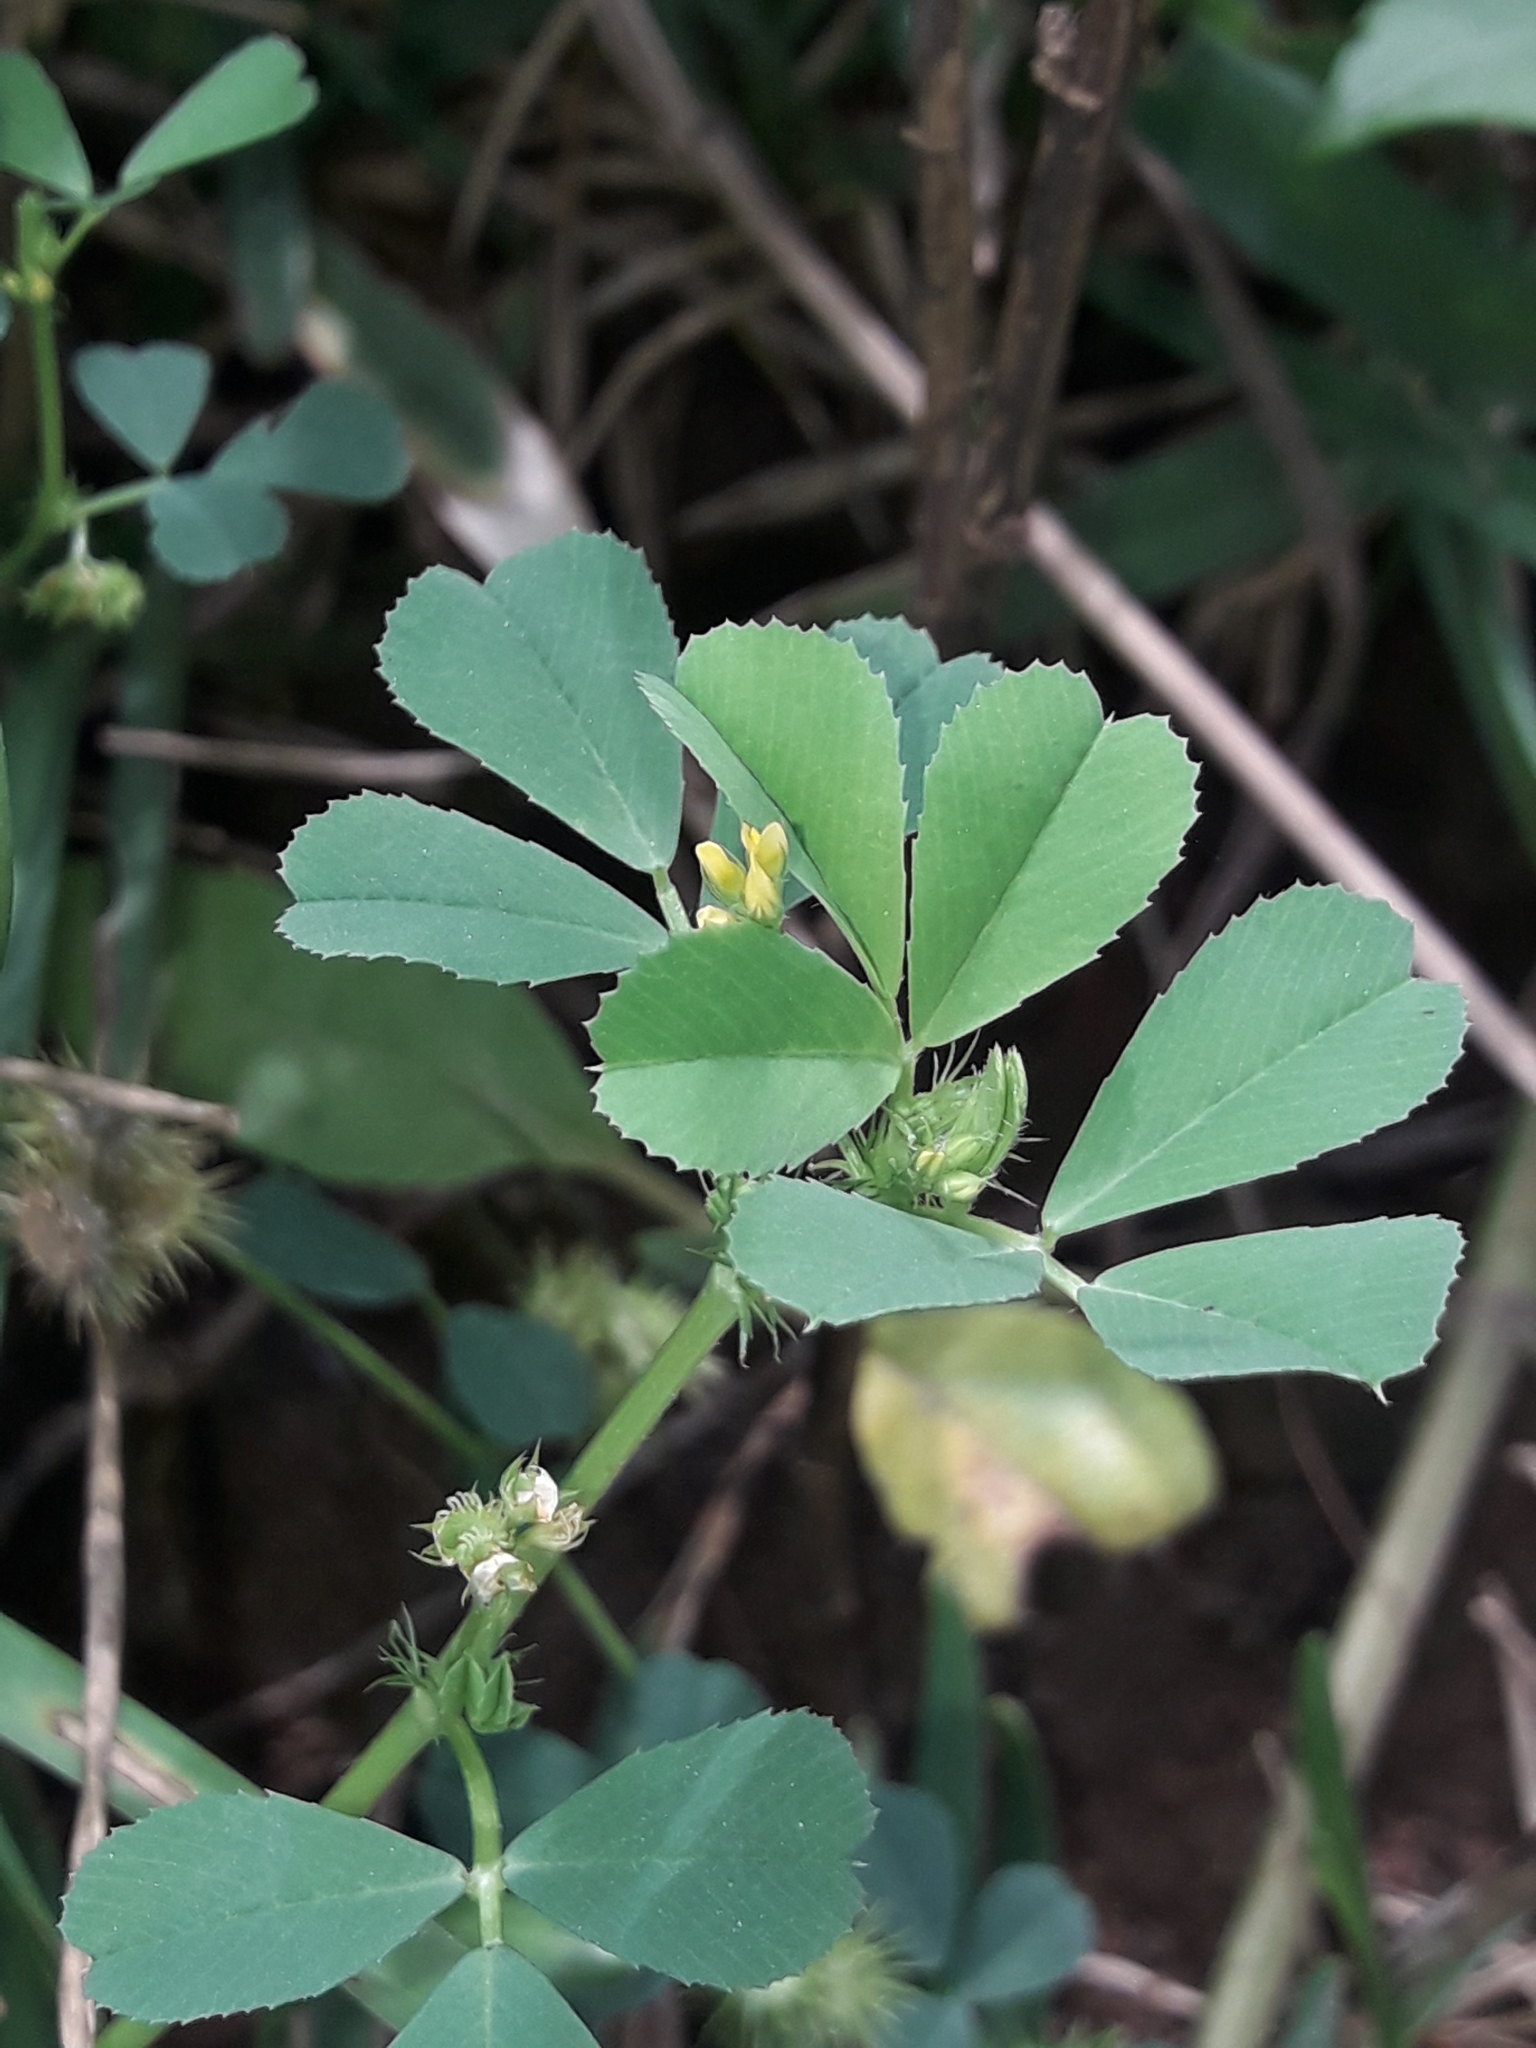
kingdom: Plantae
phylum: Tracheophyta
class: Magnoliopsida
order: Fabales
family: Fabaceae
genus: Medicago
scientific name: Medicago polymorpha
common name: Burclover
